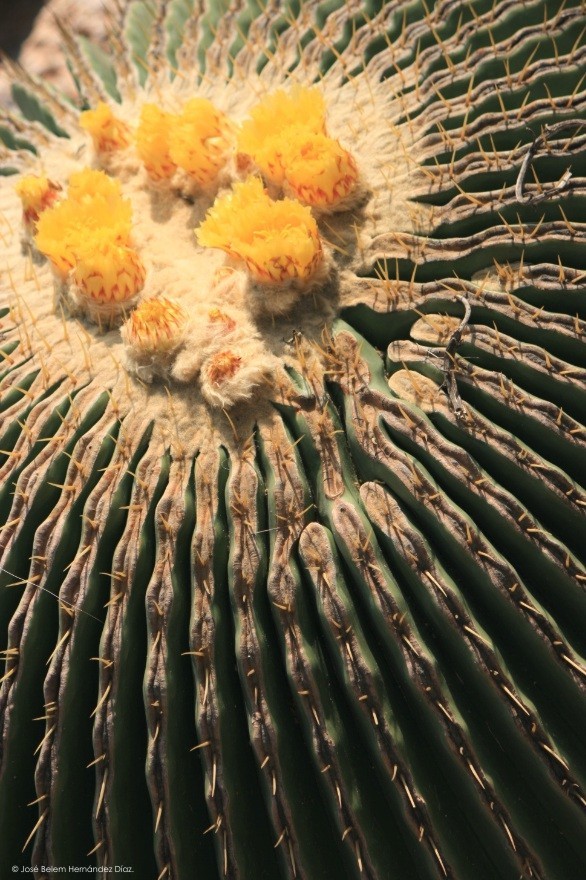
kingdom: Plantae
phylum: Tracheophyta
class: Magnoliopsida
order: Caryophyllales
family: Cactaceae
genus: Echinocactus
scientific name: Echinocactus platyacanthus
